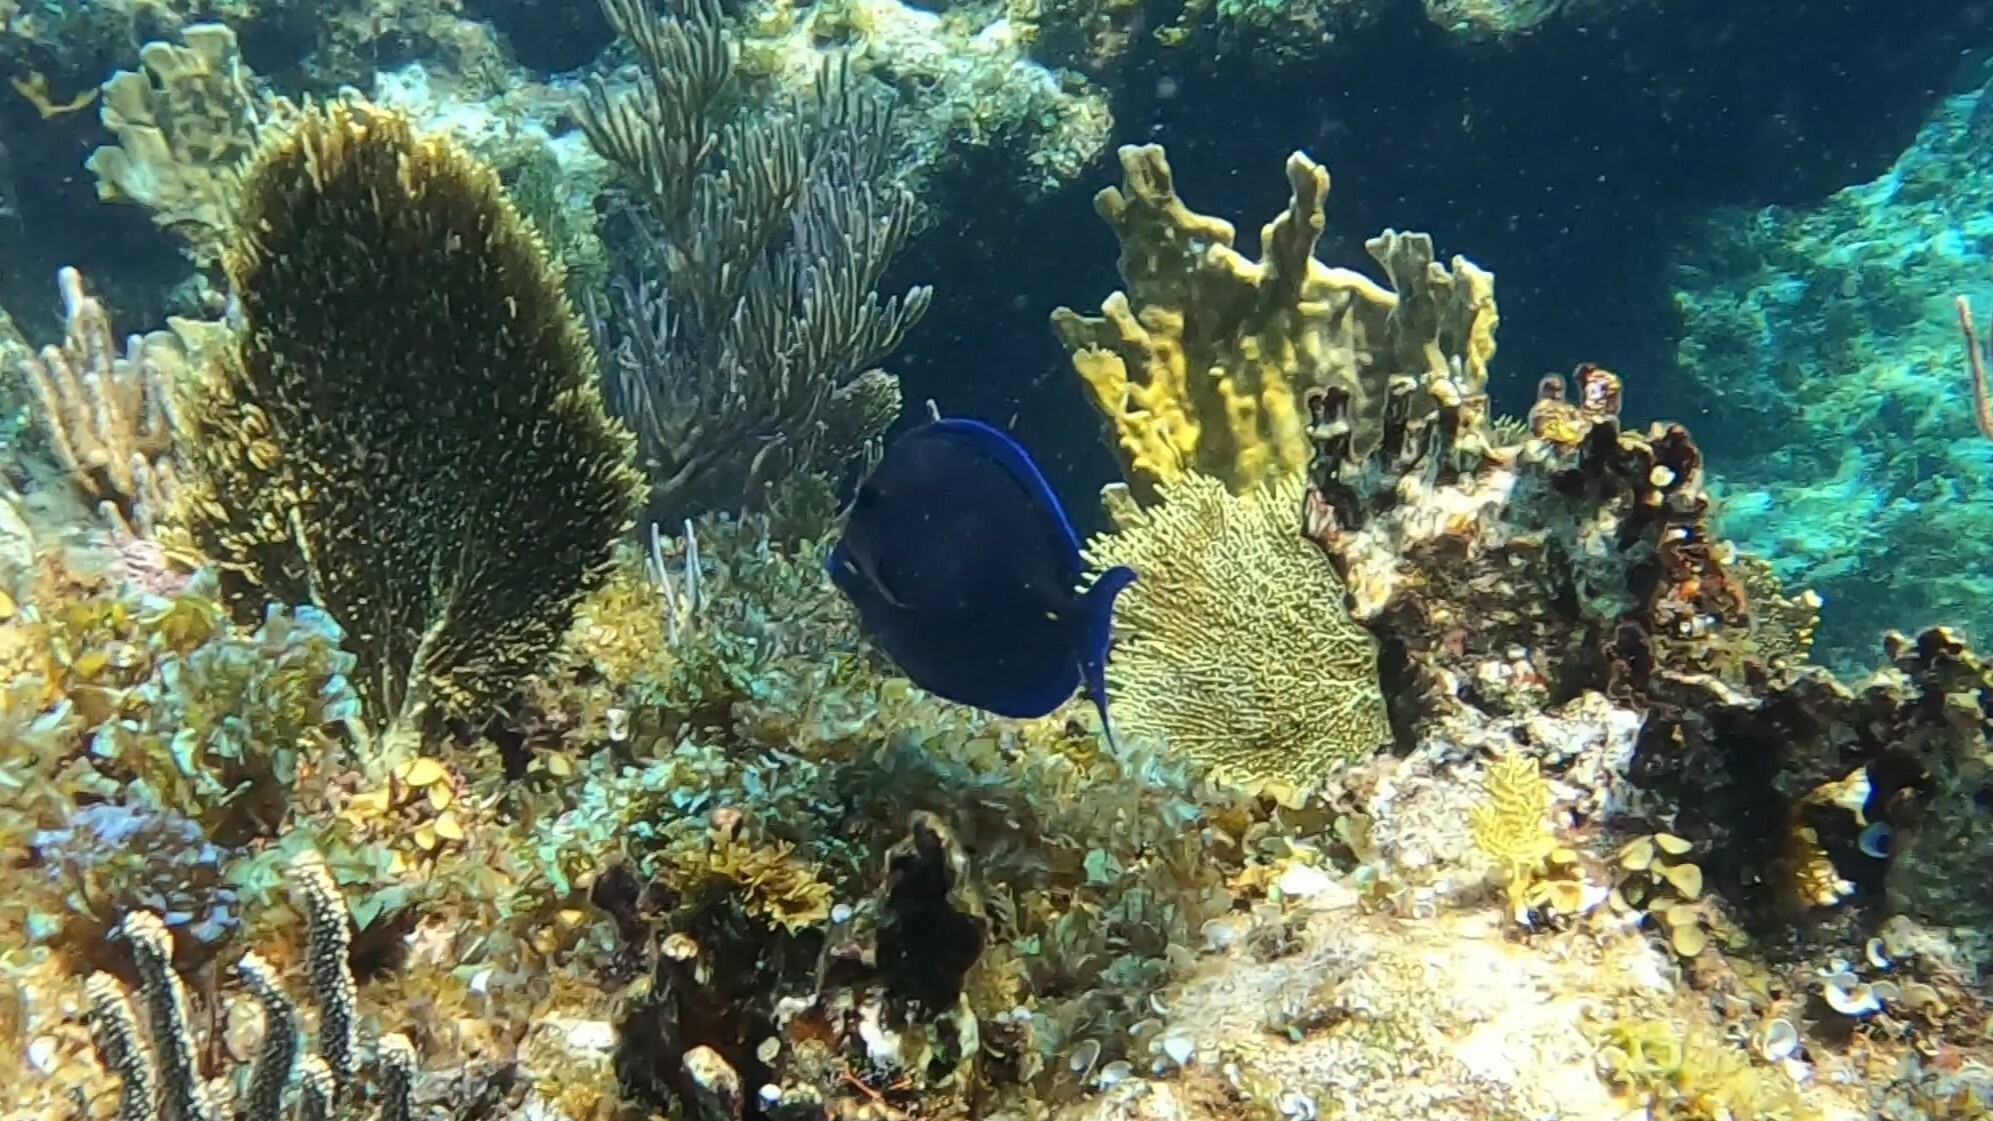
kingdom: Animalia
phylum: Chordata
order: Perciformes
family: Acanthuridae
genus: Acanthurus
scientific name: Acanthurus coeruleus
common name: Blue tang
